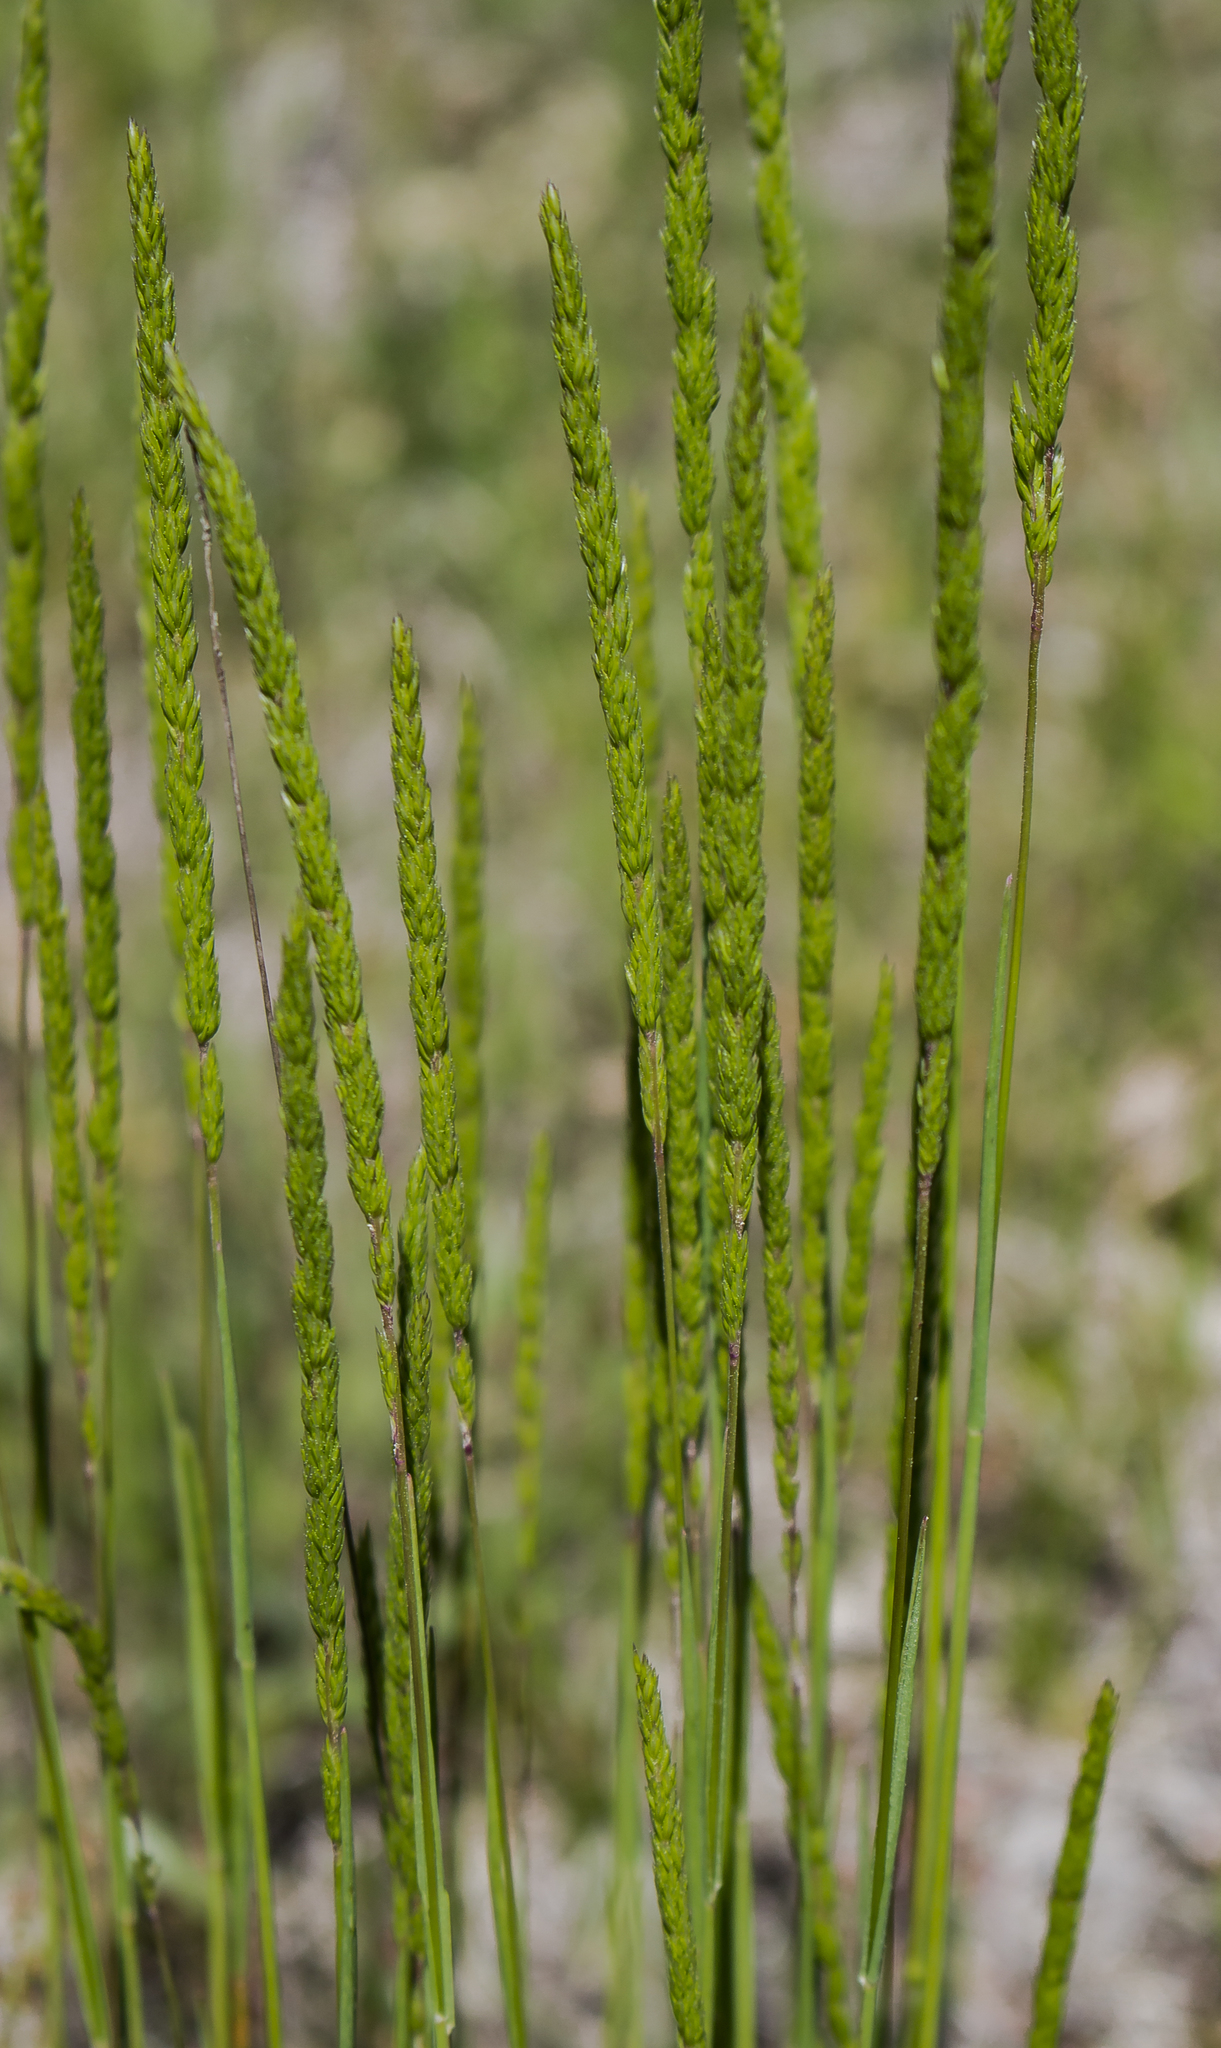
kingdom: Plantae
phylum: Tracheophyta
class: Liliopsida
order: Poales
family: Poaceae
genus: Koeleria
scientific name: Koeleria macrantha
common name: Crested hair-grass
